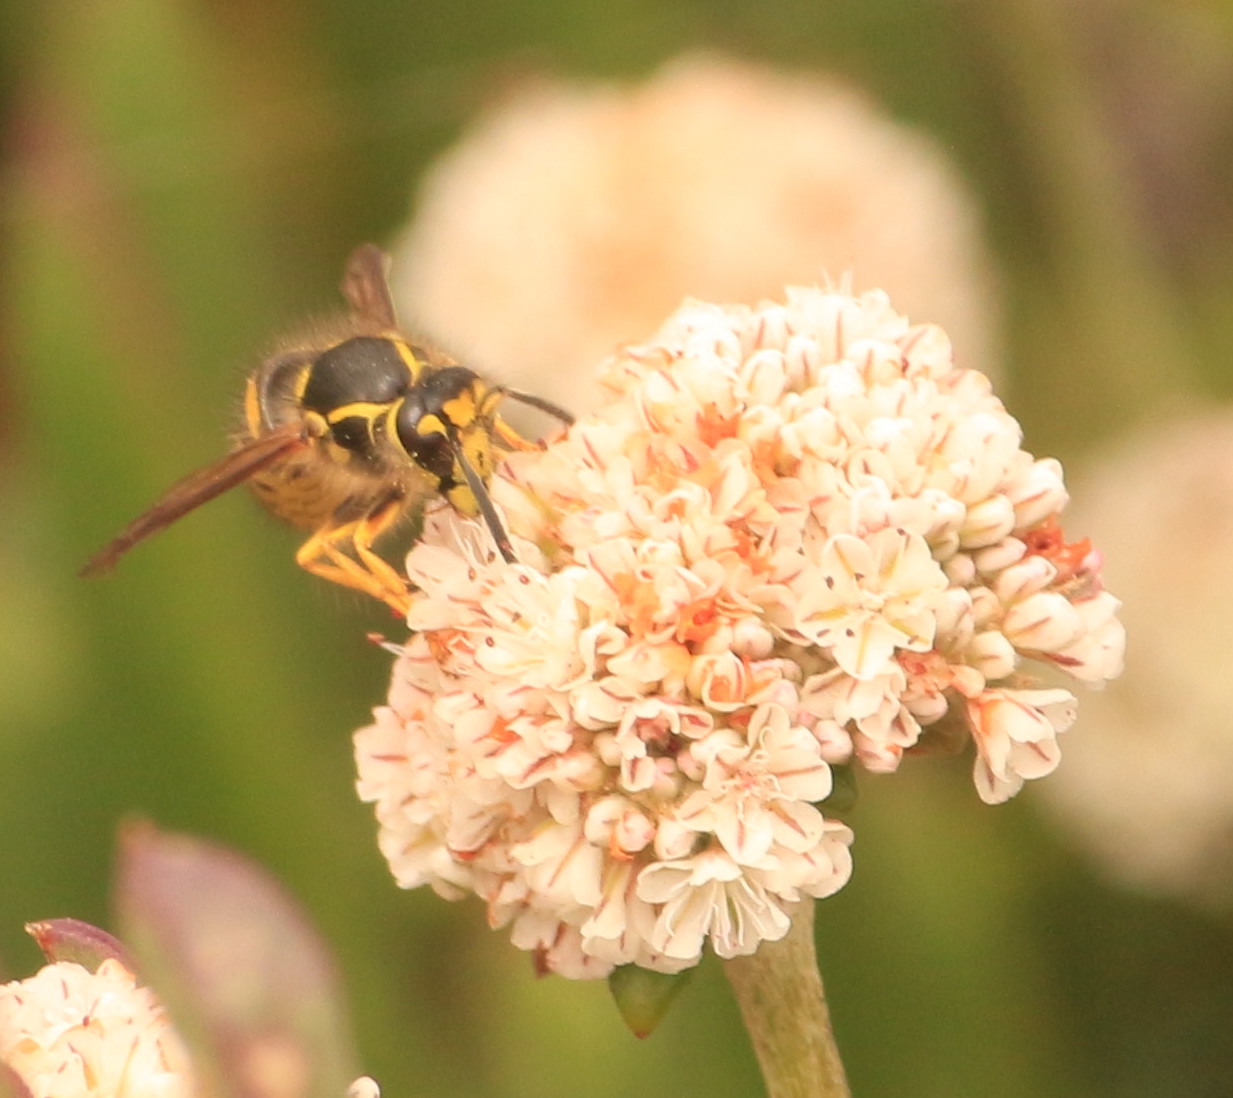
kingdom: Animalia
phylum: Arthropoda
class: Insecta
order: Hymenoptera
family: Vespidae
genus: Dolichovespula
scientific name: Dolichovespula arenaria
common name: Aerial yellowjacket
